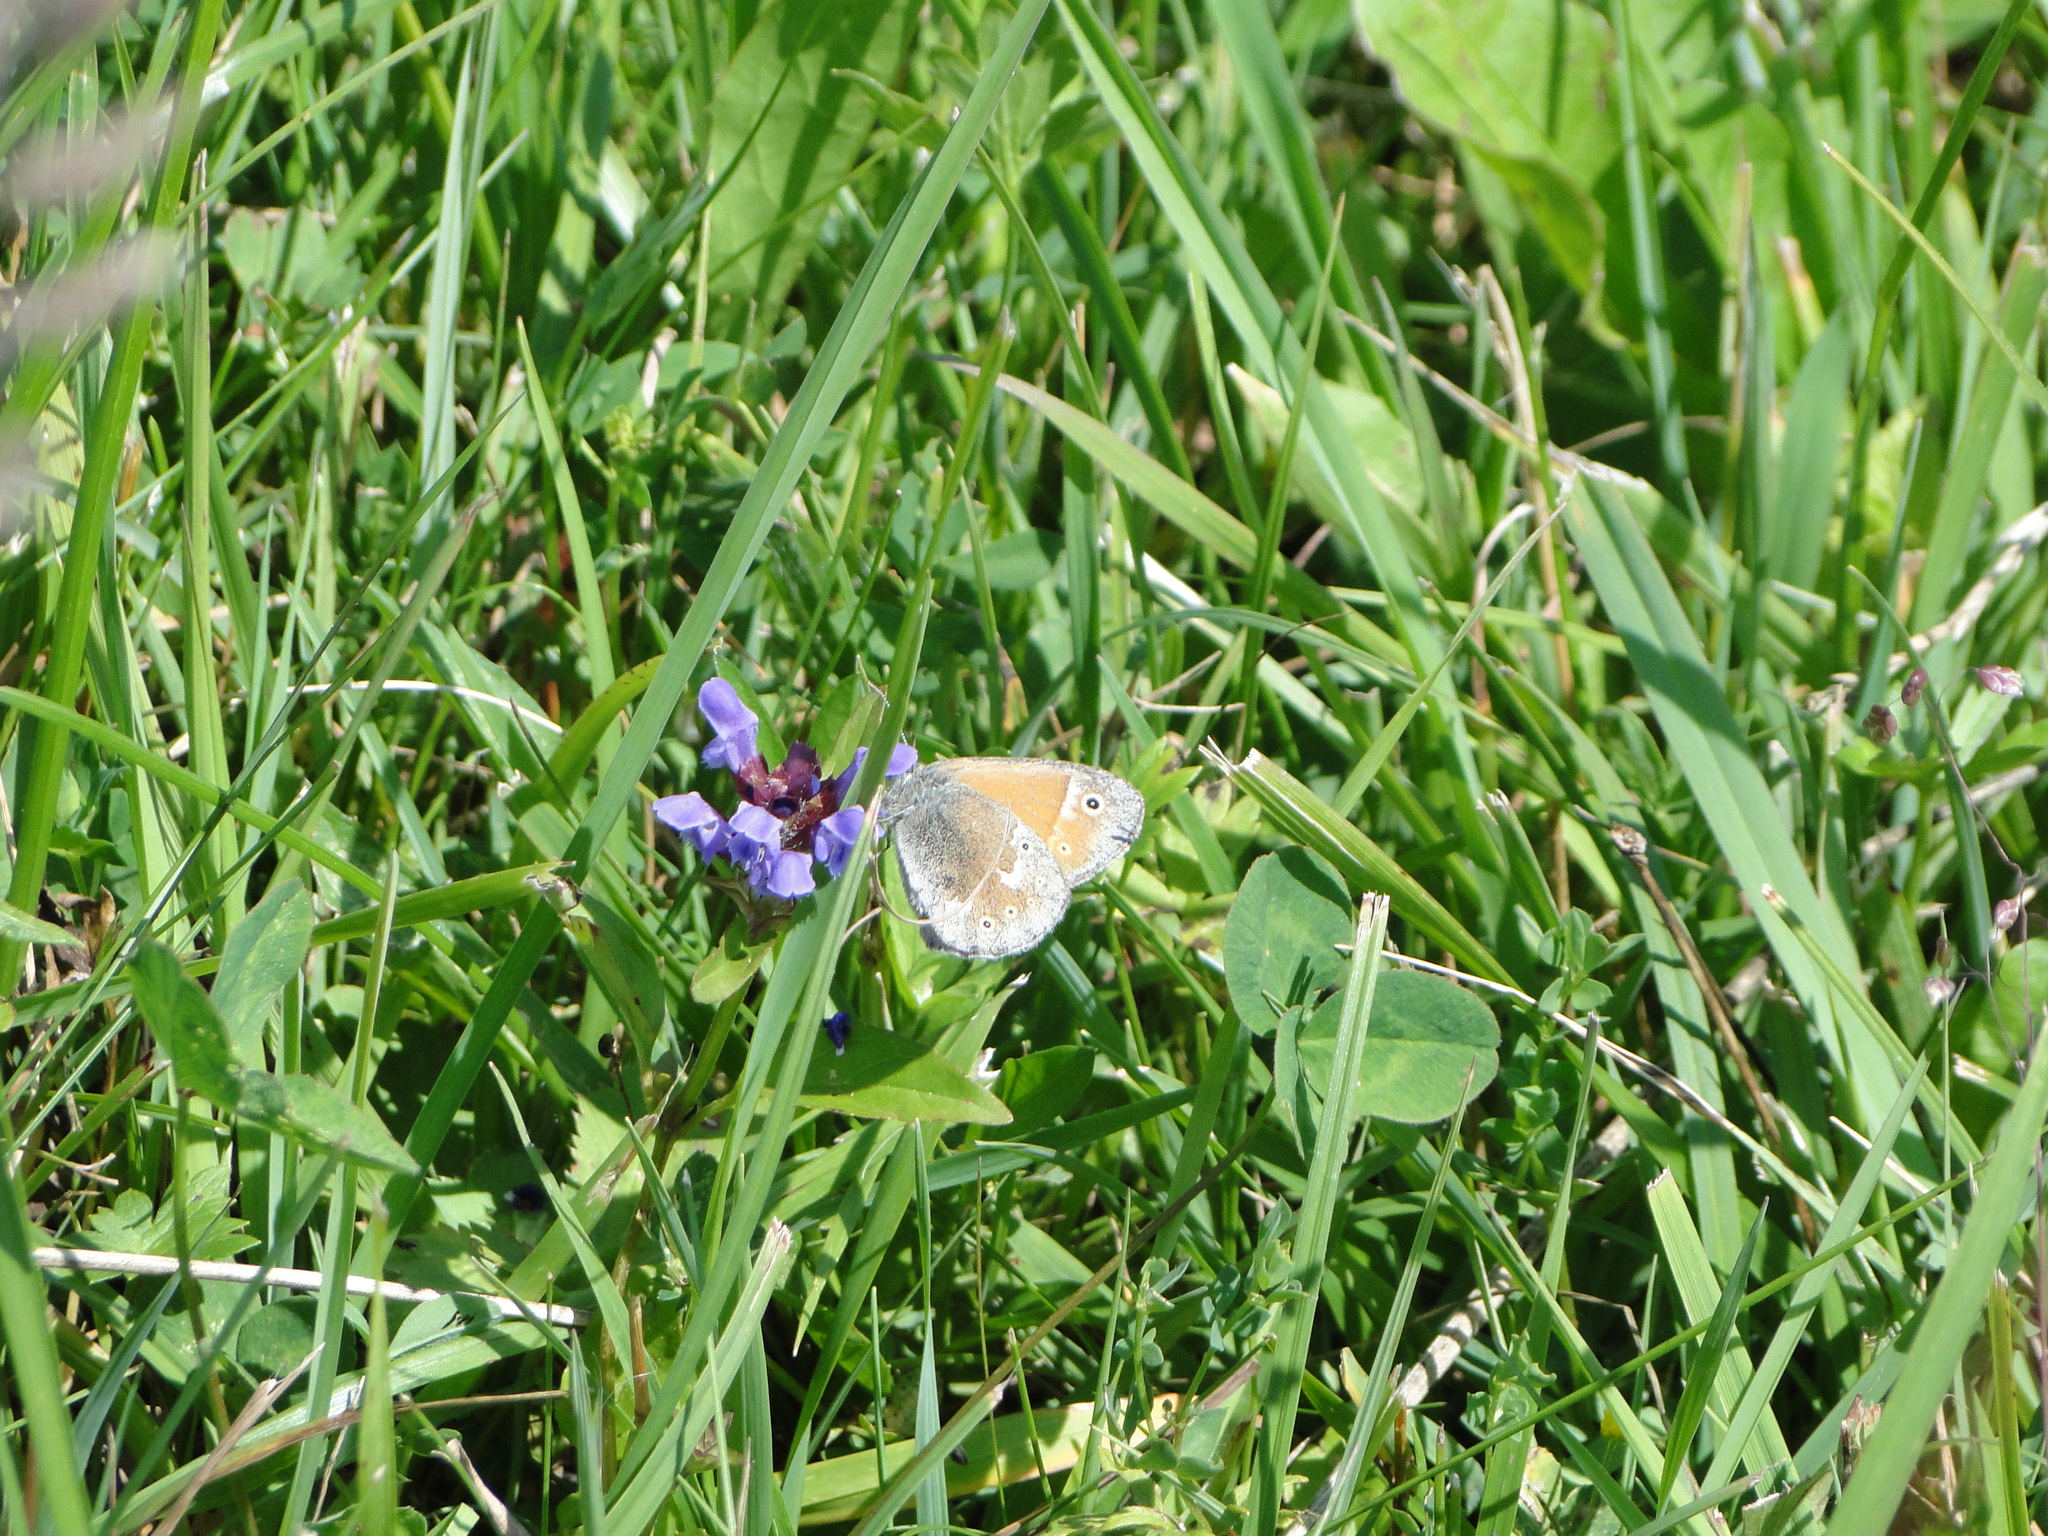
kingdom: Animalia
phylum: Arthropoda
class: Insecta
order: Lepidoptera
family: Nymphalidae
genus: Coenonympha
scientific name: Coenonympha tullia
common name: Large heath
